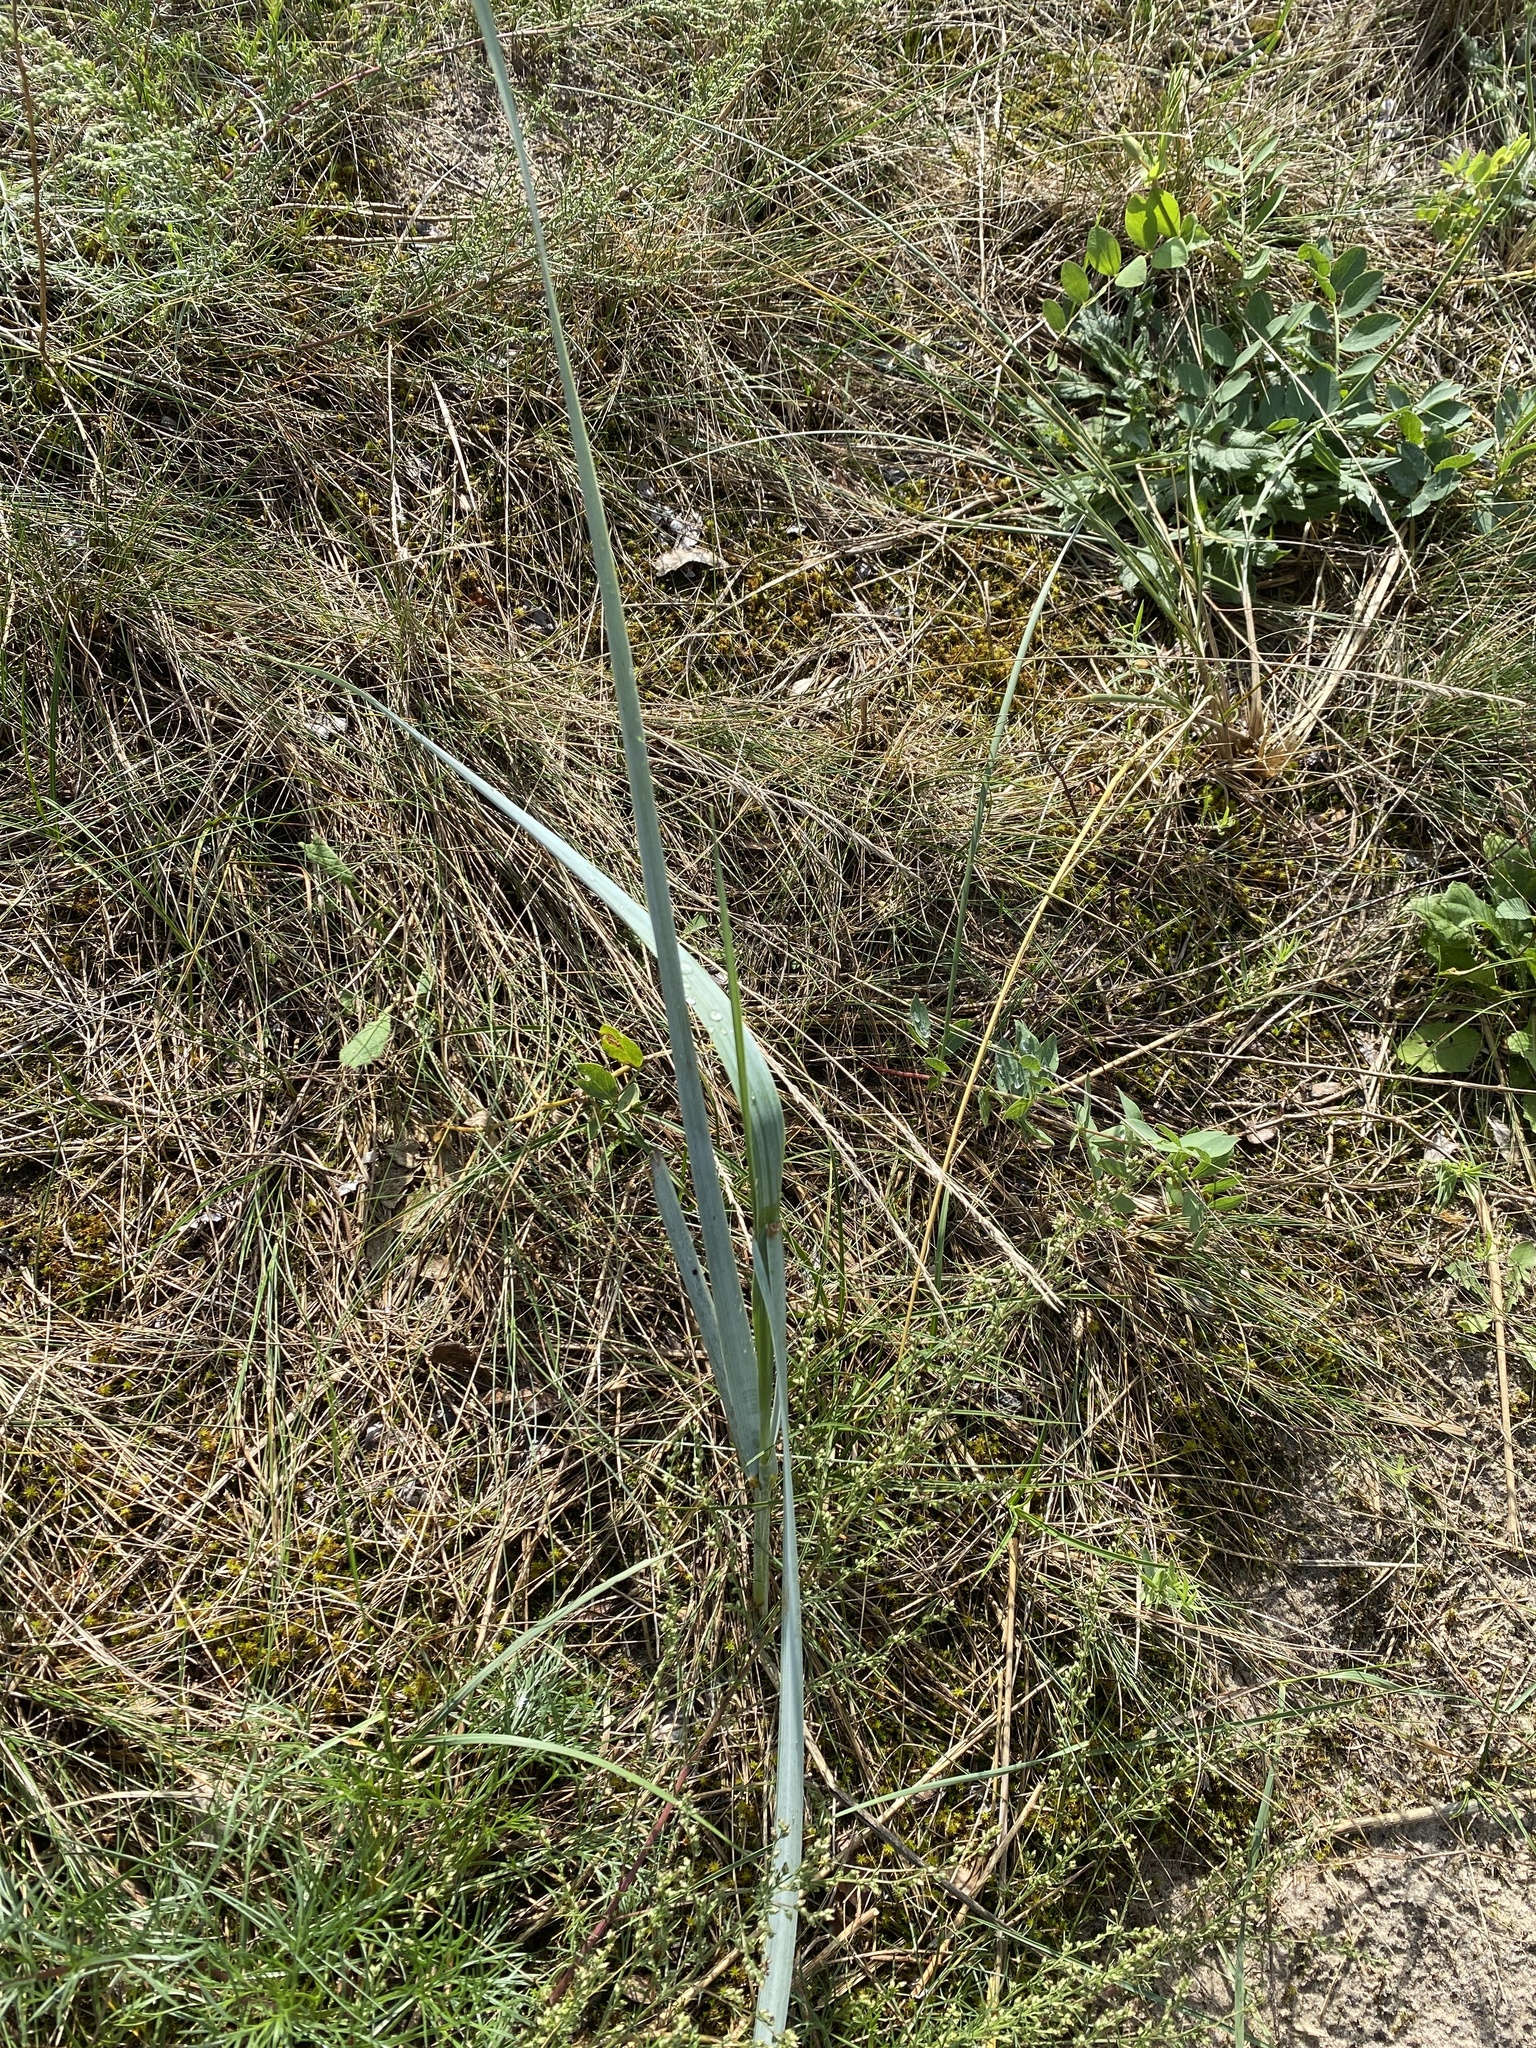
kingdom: Plantae
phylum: Tracheophyta
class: Liliopsida
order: Poales
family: Poaceae
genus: Leymus
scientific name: Leymus arenarius
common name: Lyme-grass
